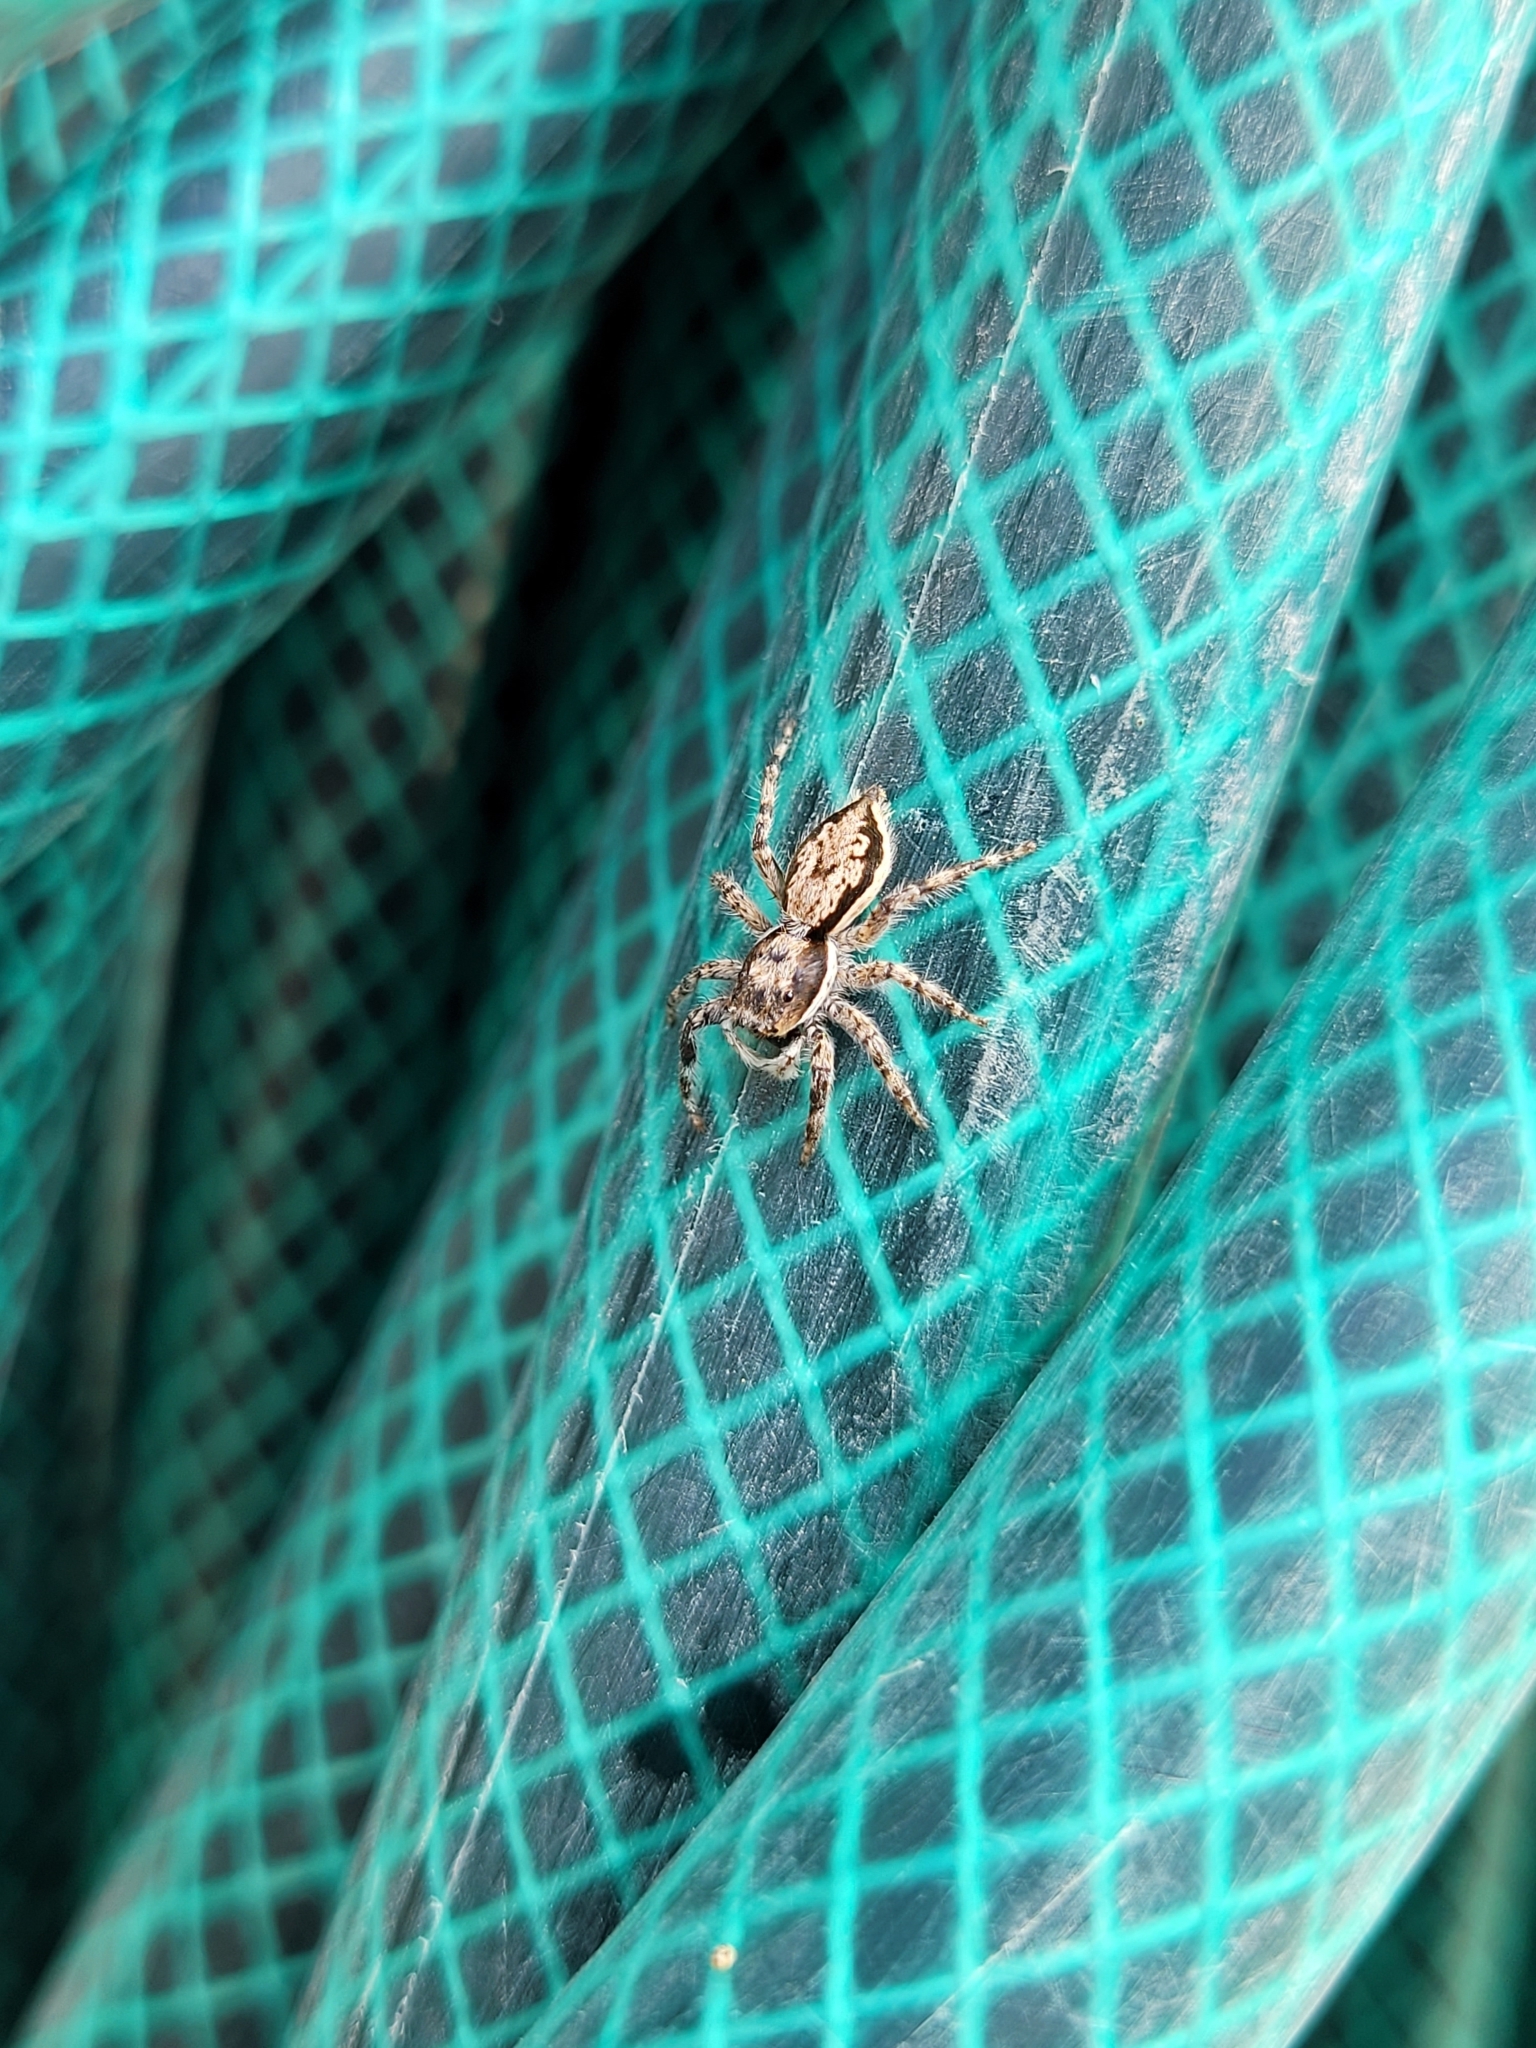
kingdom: Animalia
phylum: Arthropoda
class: Arachnida
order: Araneae
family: Salticidae
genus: Menemerus
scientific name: Menemerus bivittatus
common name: Gray wall jumper
